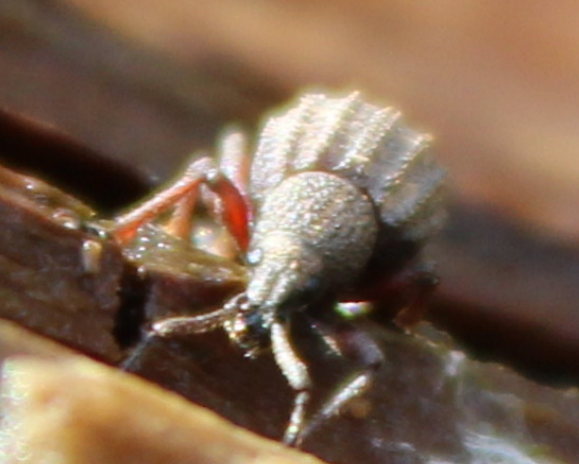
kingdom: Animalia
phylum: Arthropoda
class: Insecta
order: Coleoptera
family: Curculionidae
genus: Otiorhynchus
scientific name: Otiorhynchus porcatus
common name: Weevil
